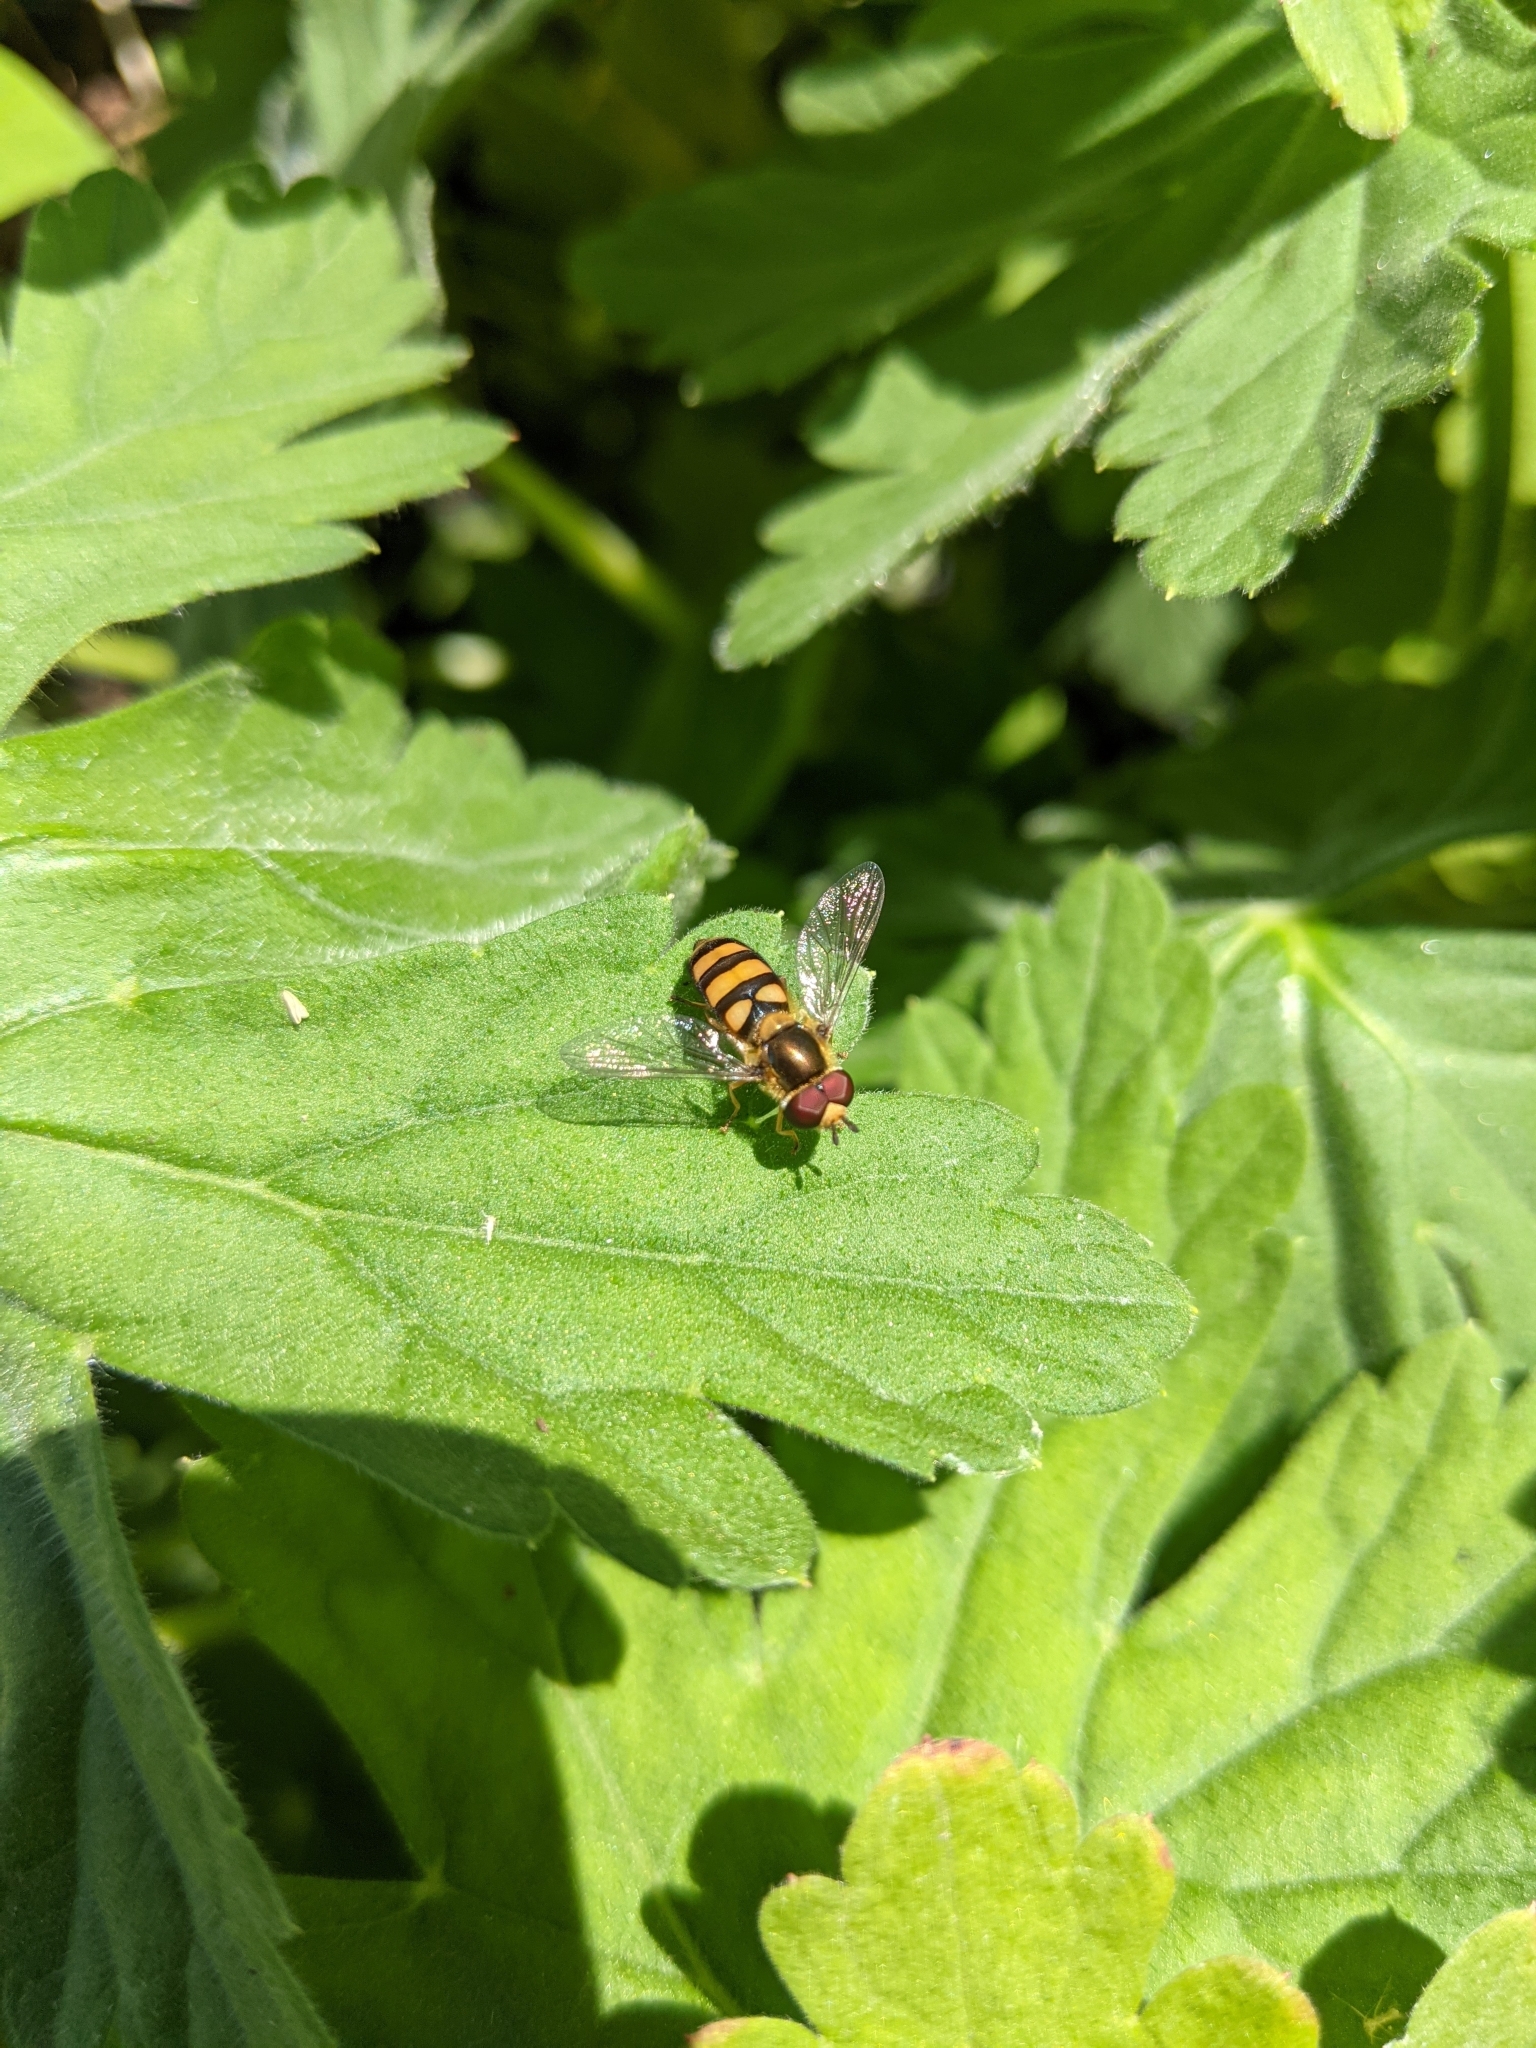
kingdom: Animalia
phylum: Arthropoda
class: Insecta
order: Diptera
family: Syrphidae
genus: Eupeodes
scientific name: Eupeodes
